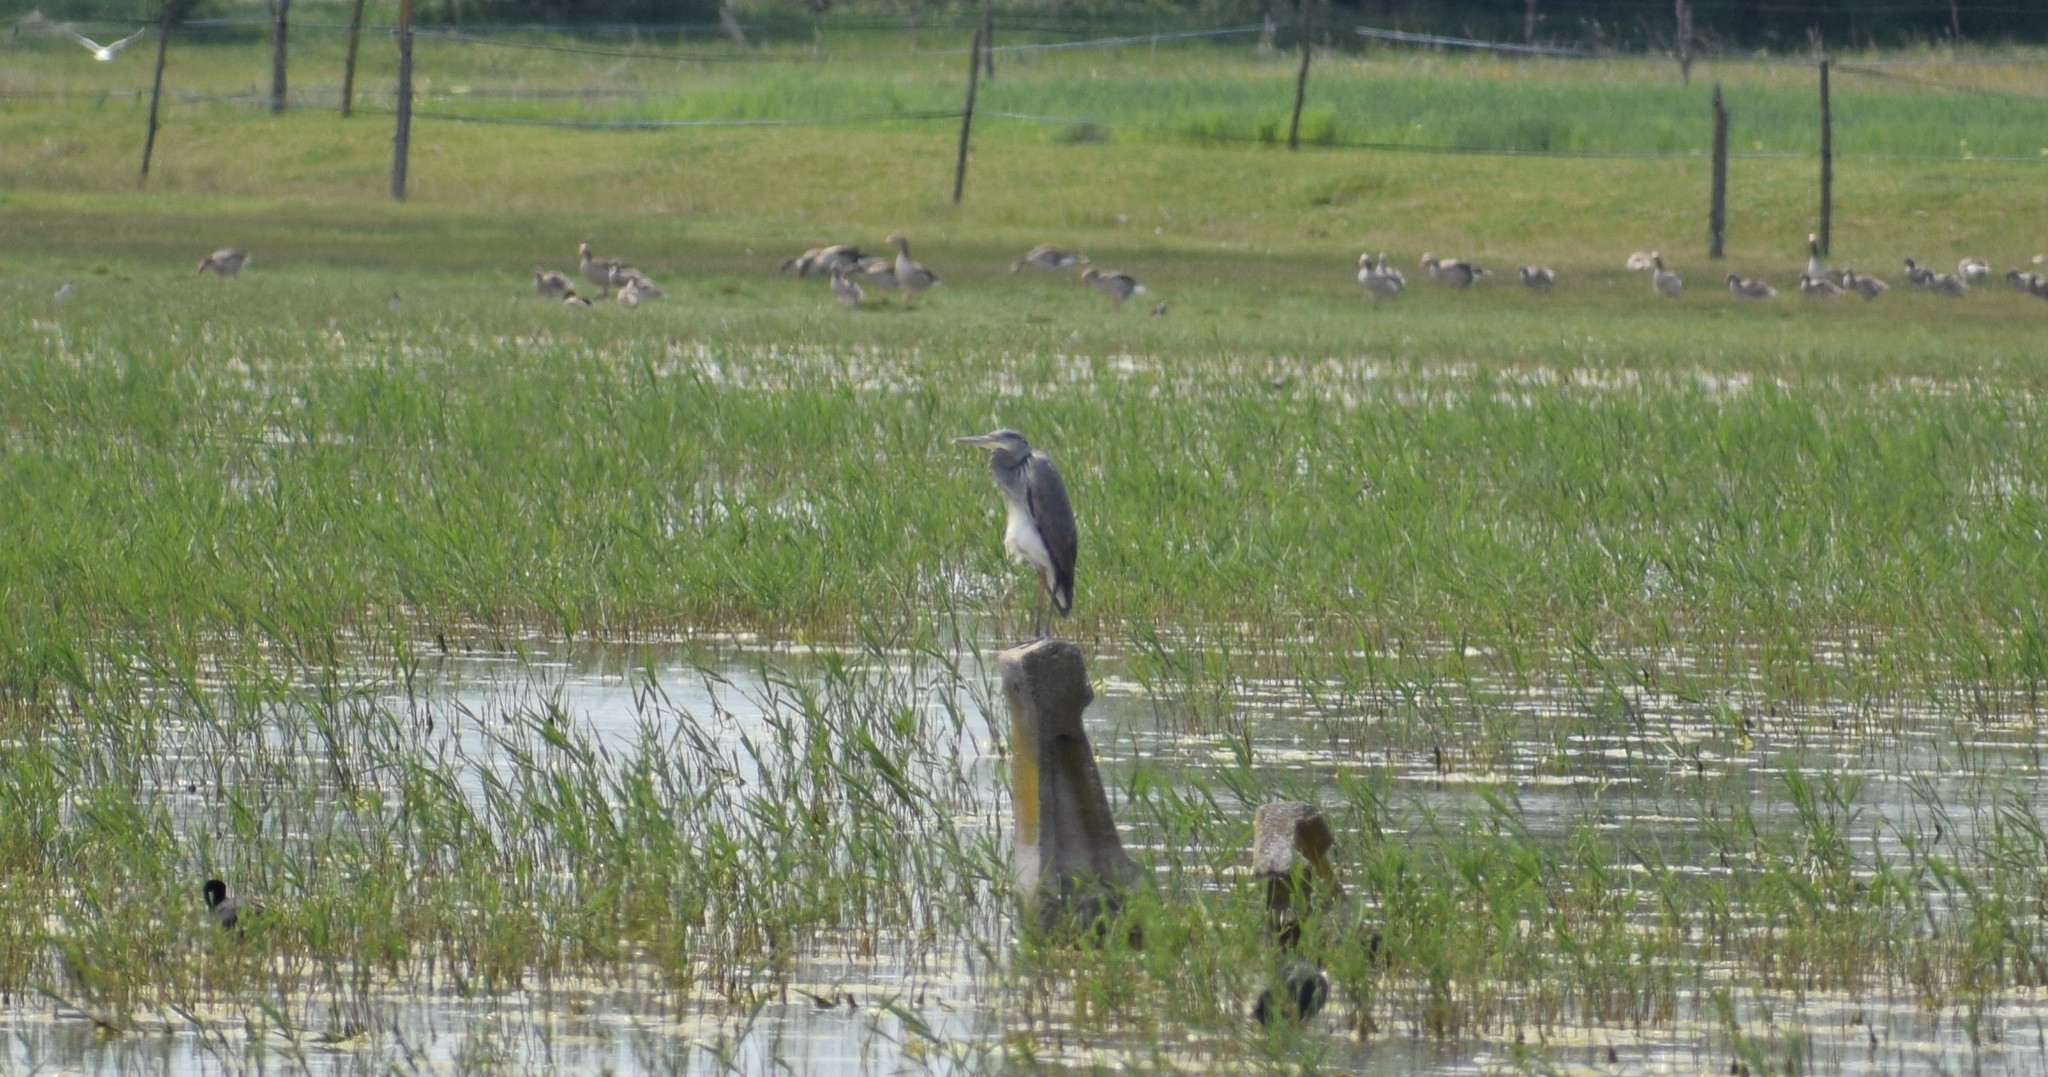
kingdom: Animalia
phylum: Chordata
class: Aves
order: Anseriformes
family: Anatidae
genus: Anser
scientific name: Anser anser
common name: Greylag goose
